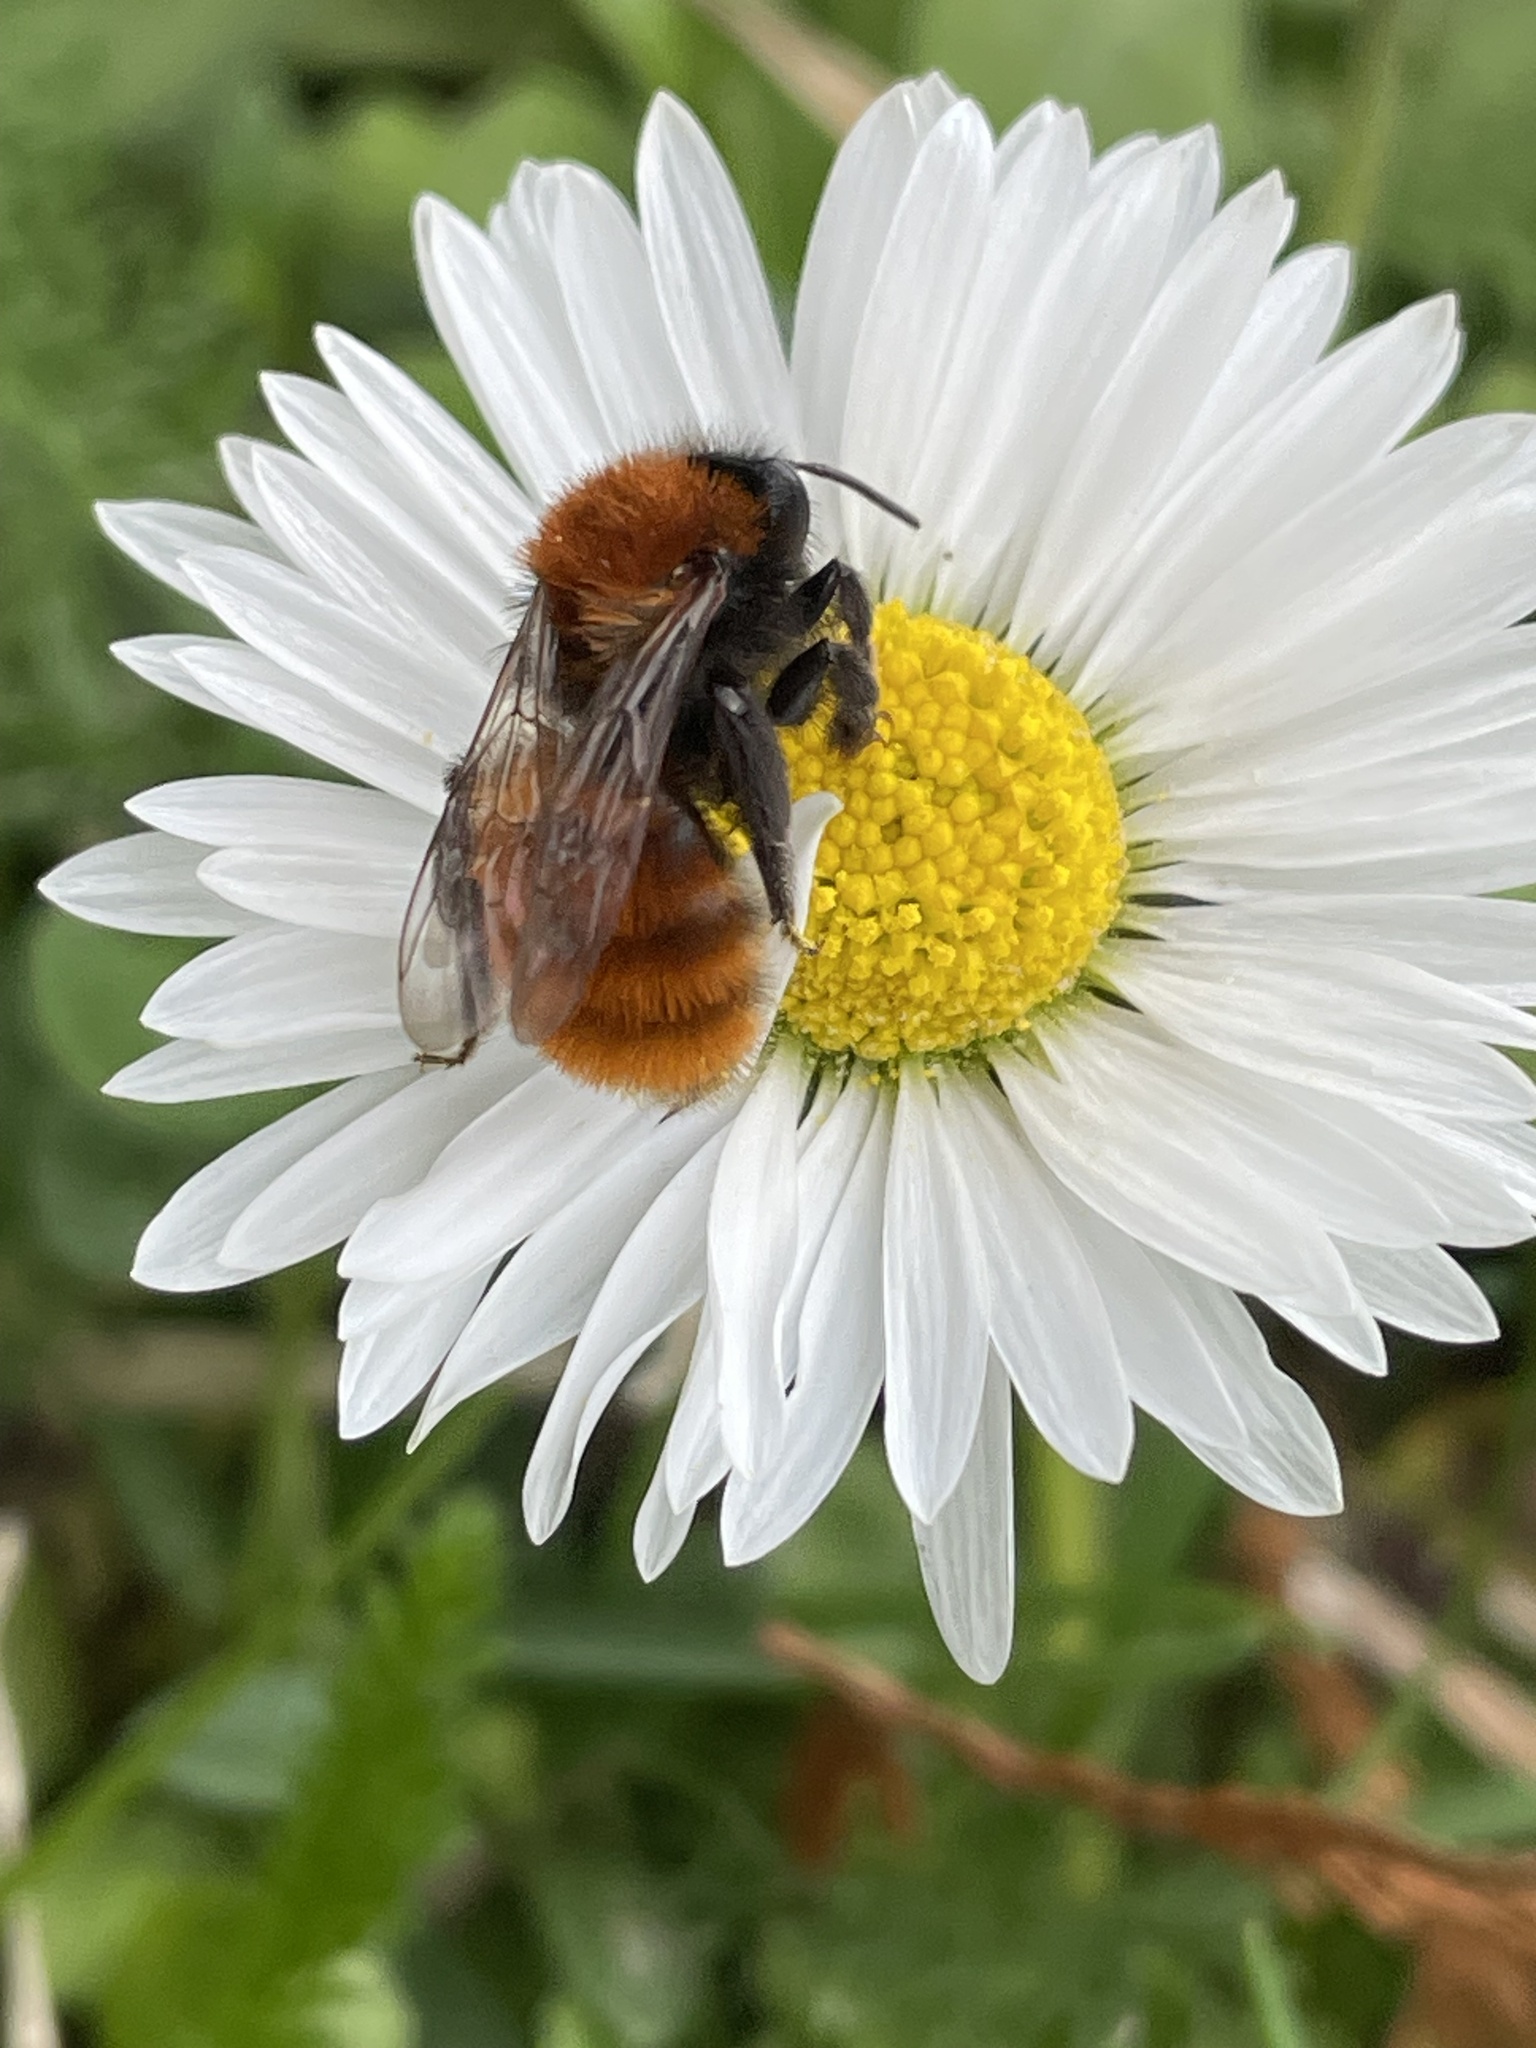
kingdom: Animalia
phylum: Arthropoda
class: Insecta
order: Hymenoptera
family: Andrenidae
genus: Andrena
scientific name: Andrena fulva
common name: Tawny mining bee
